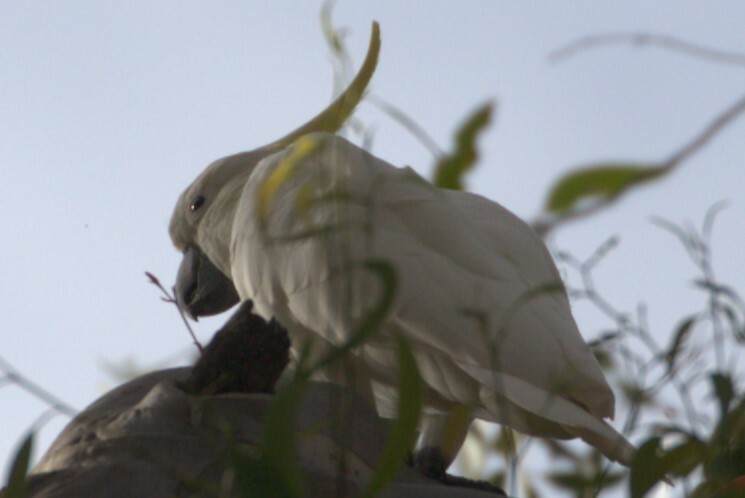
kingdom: Animalia
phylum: Chordata
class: Aves
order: Psittaciformes
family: Psittacidae
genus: Cacatua
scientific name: Cacatua galerita
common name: Sulphur-crested cockatoo
